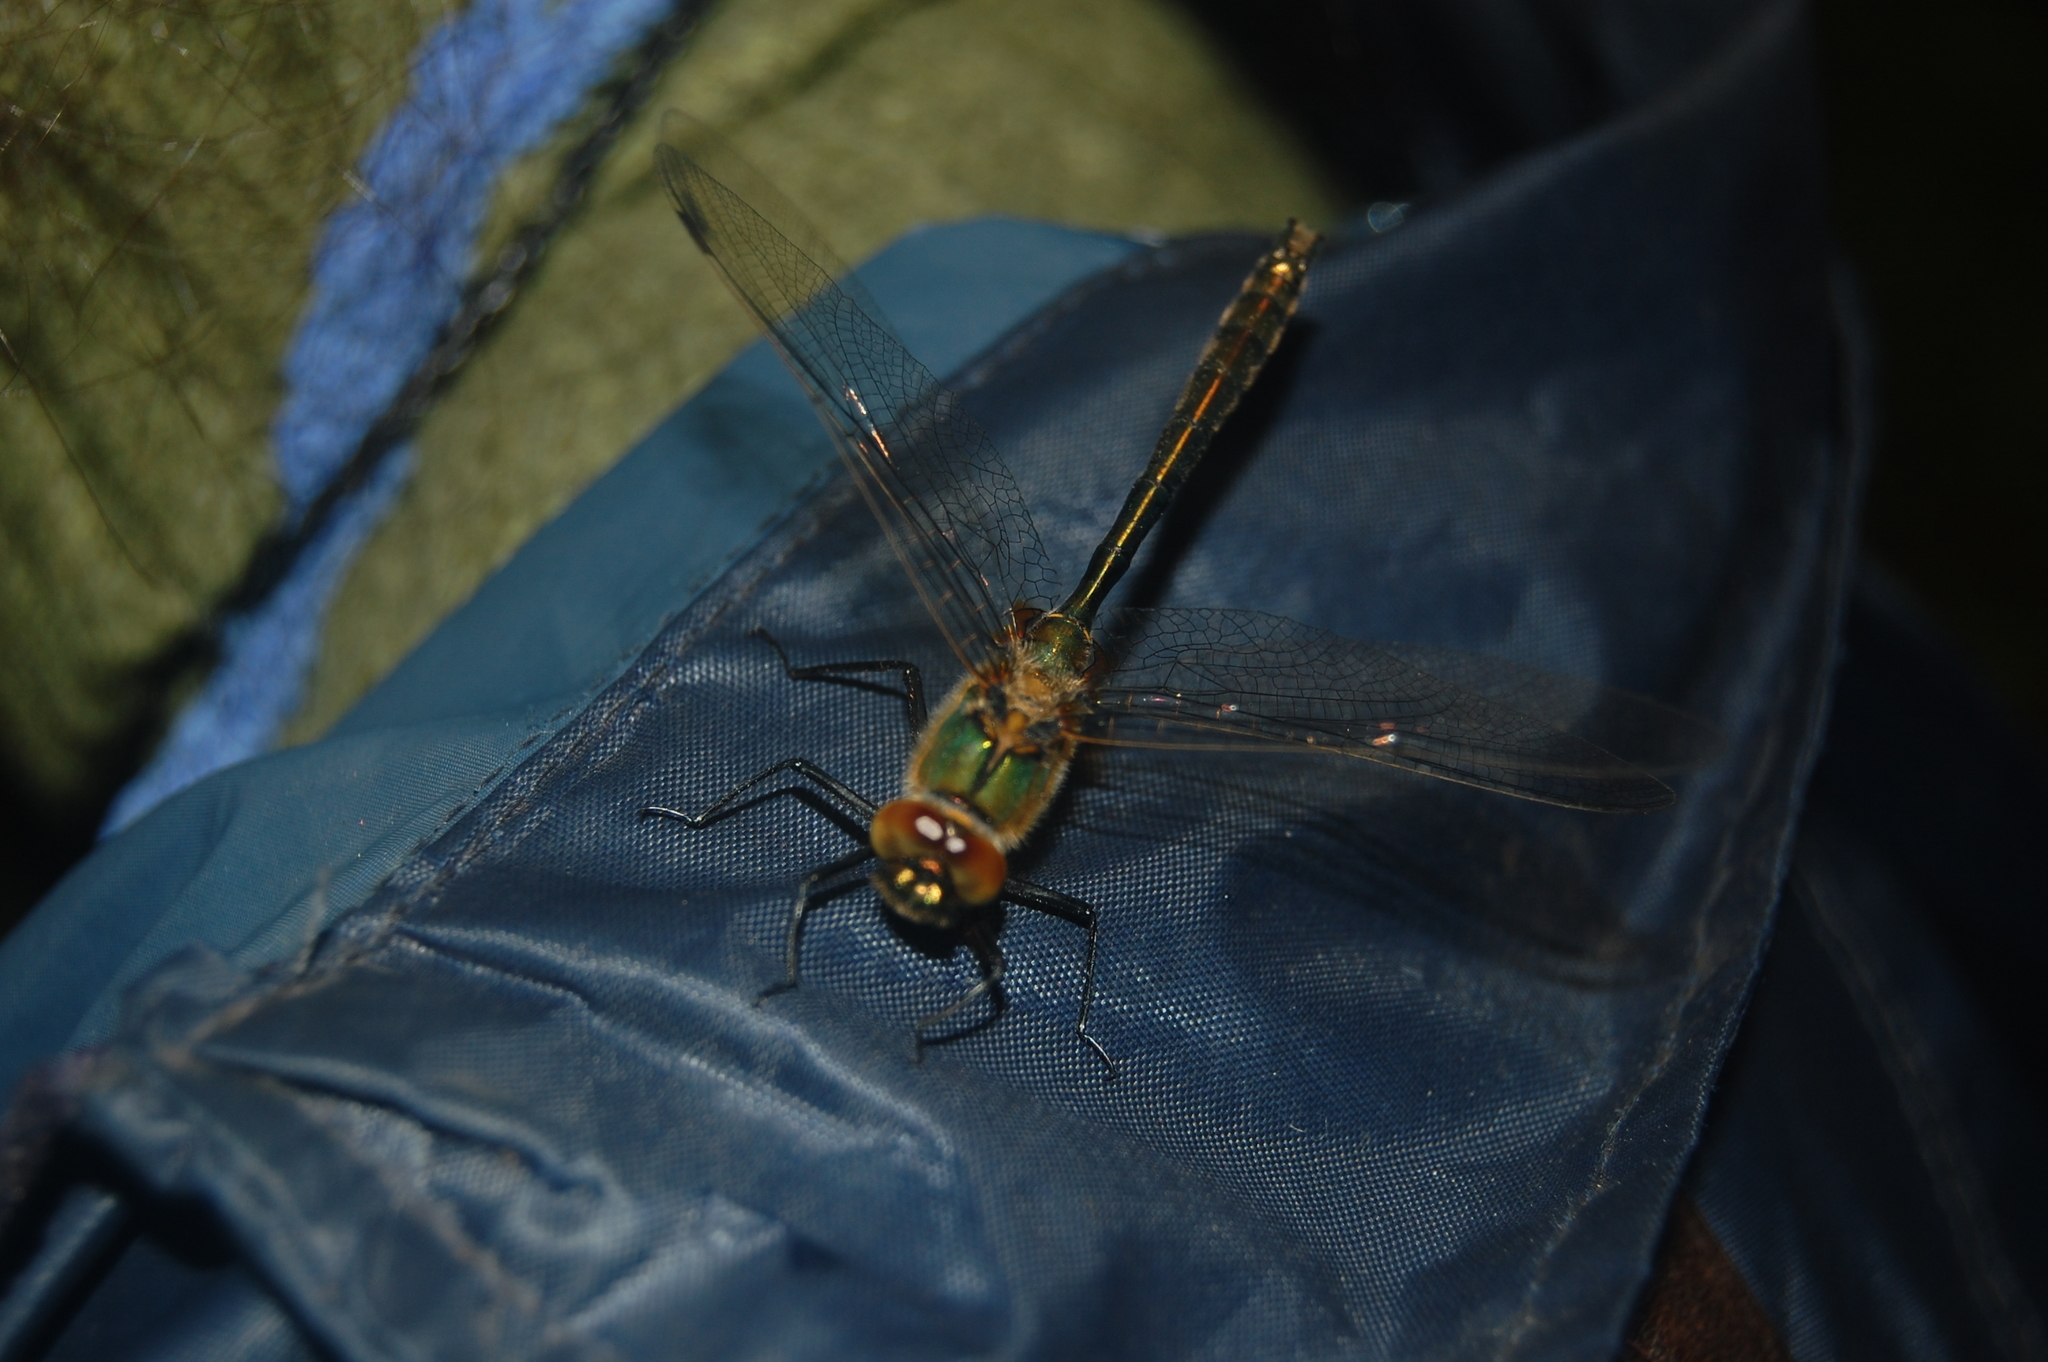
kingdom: Animalia
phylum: Arthropoda
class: Insecta
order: Odonata
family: Corduliidae
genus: Cordulia
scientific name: Cordulia aenea
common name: Downy emerald
